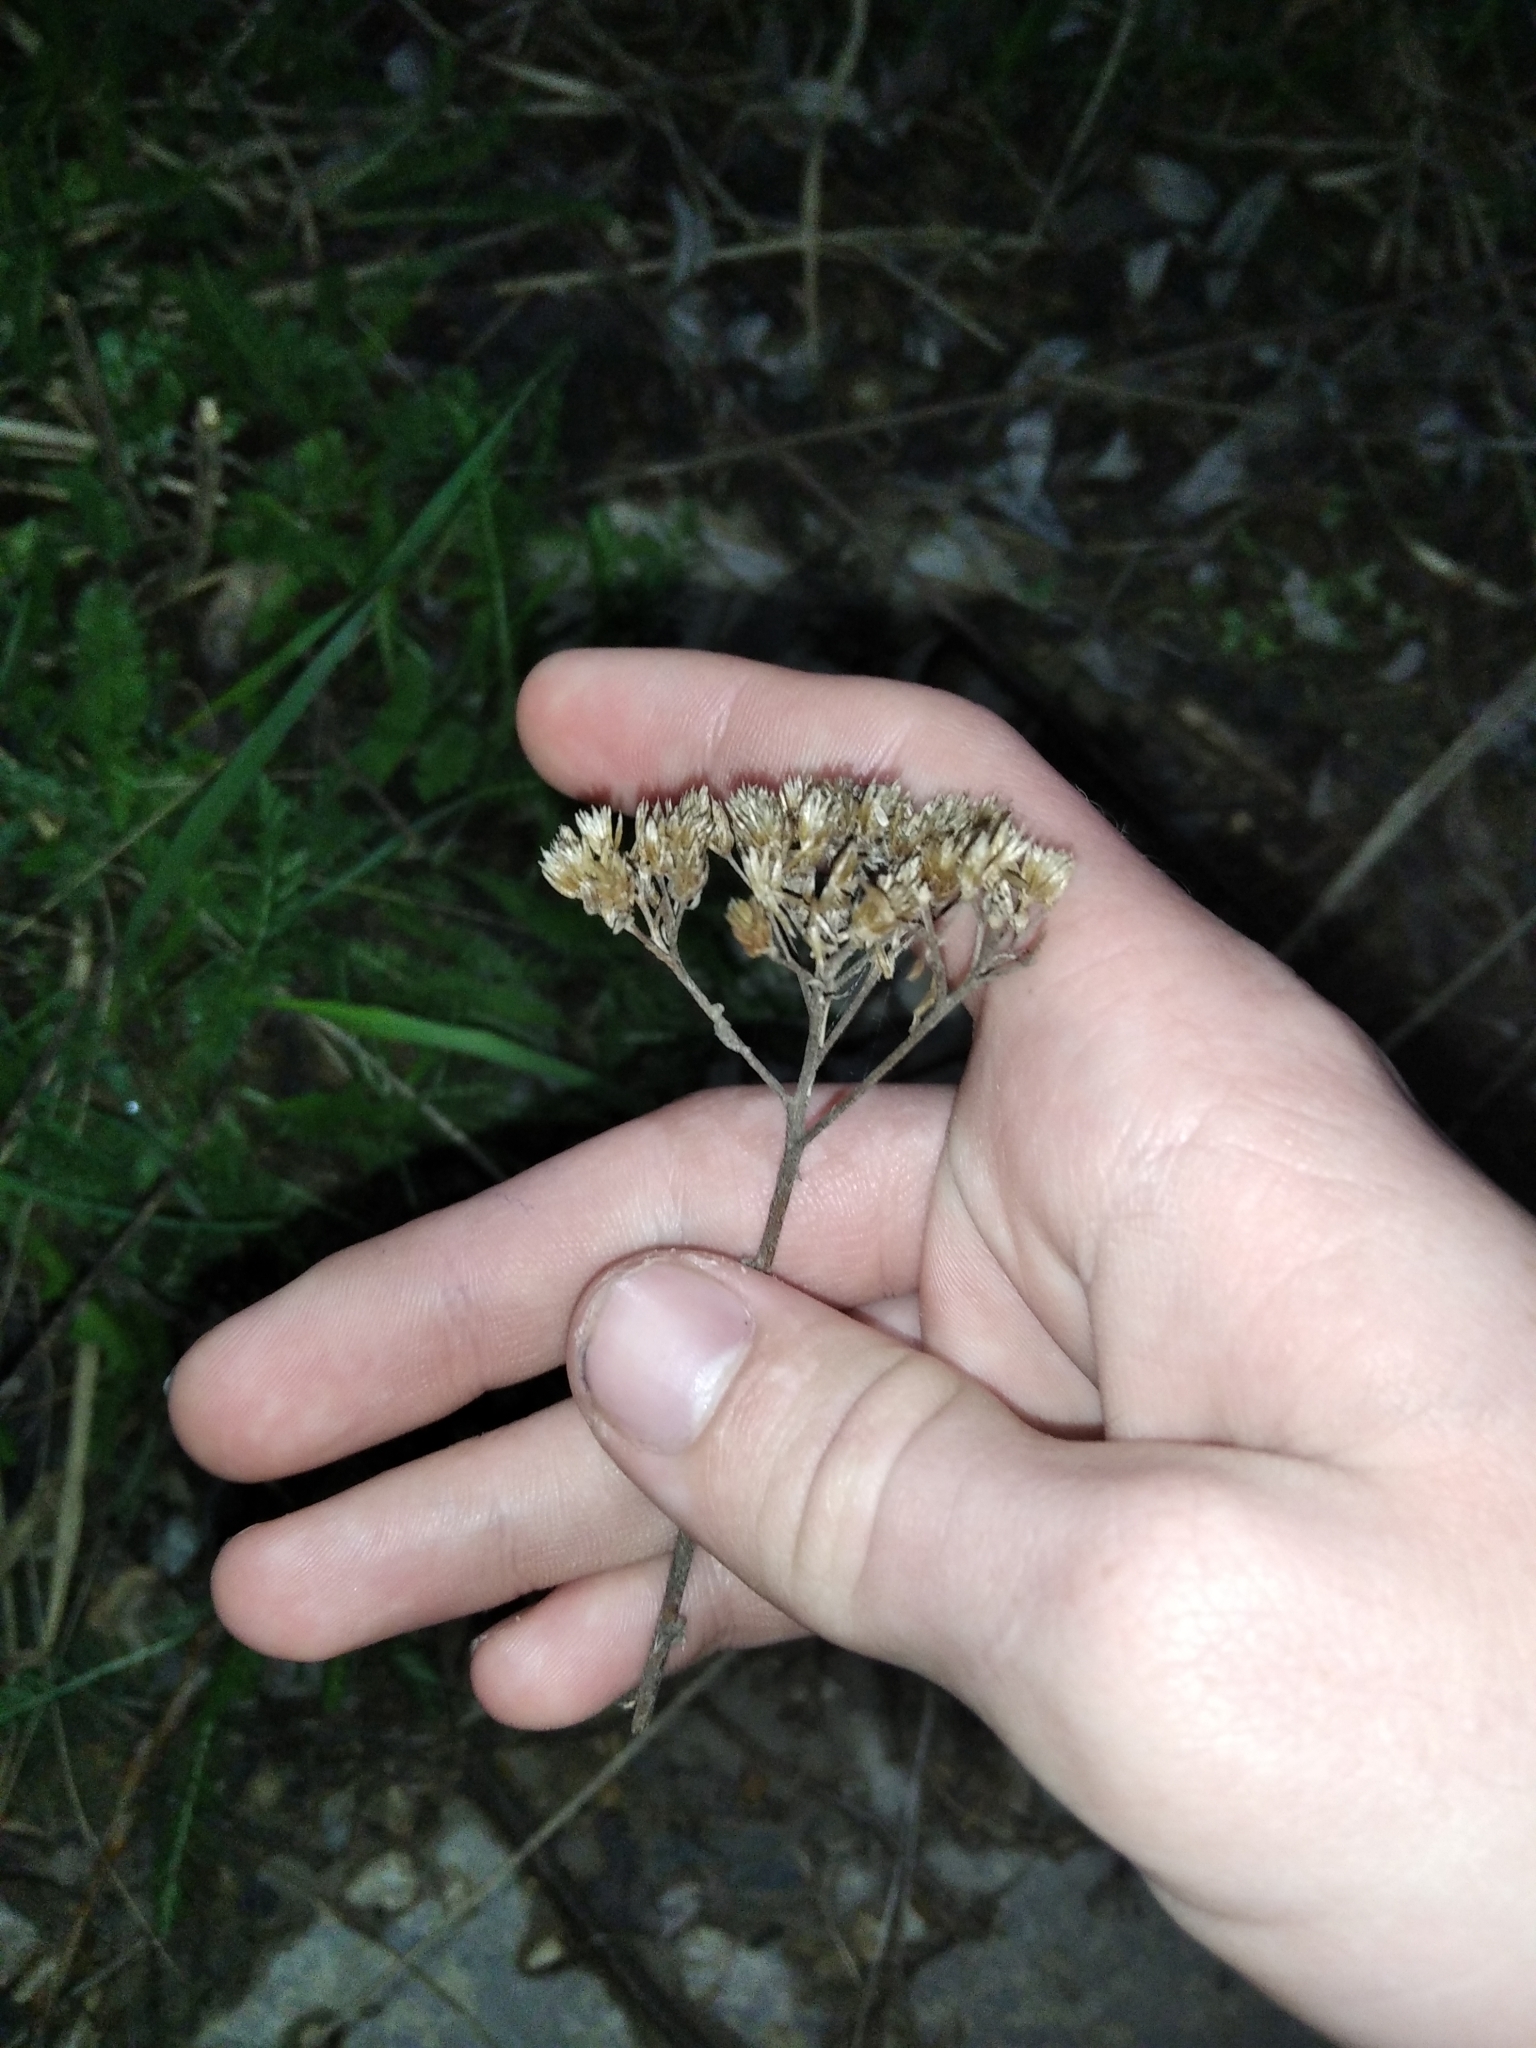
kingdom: Plantae
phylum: Tracheophyta
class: Magnoliopsida
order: Asterales
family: Asteraceae
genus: Achillea
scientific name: Achillea millefolium
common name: Yarrow
